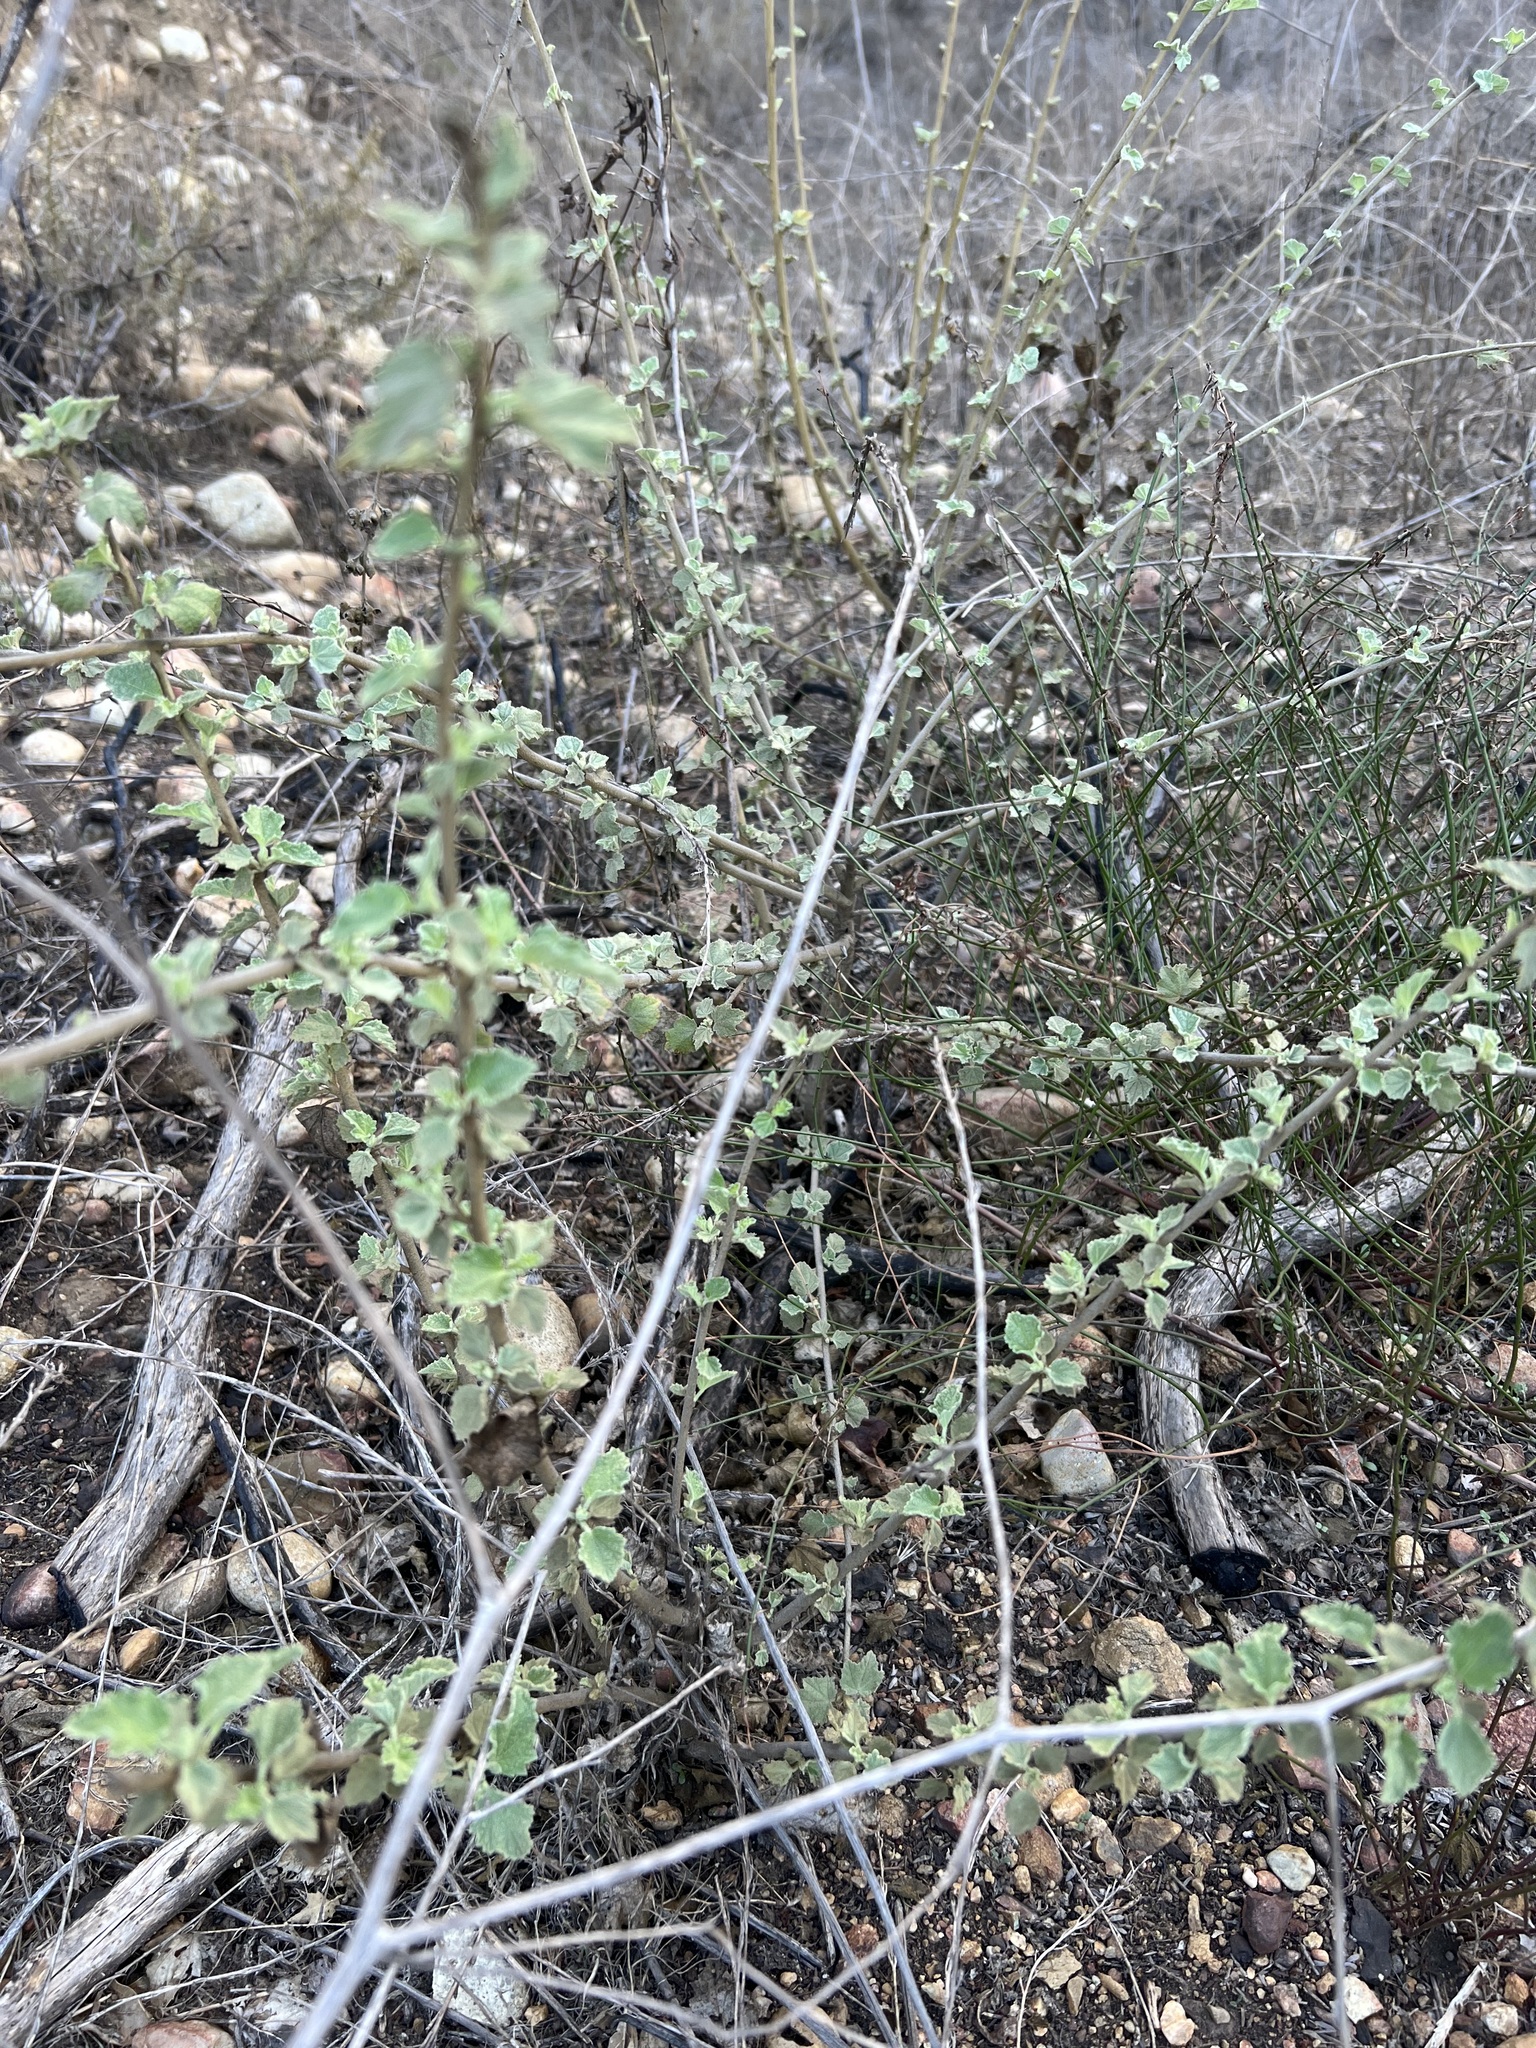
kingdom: Plantae
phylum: Tracheophyta
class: Magnoliopsida
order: Malvales
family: Malvaceae
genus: Malacothamnus
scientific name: Malacothamnus fasciculatus
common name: Sant cruz island bush-mallow
